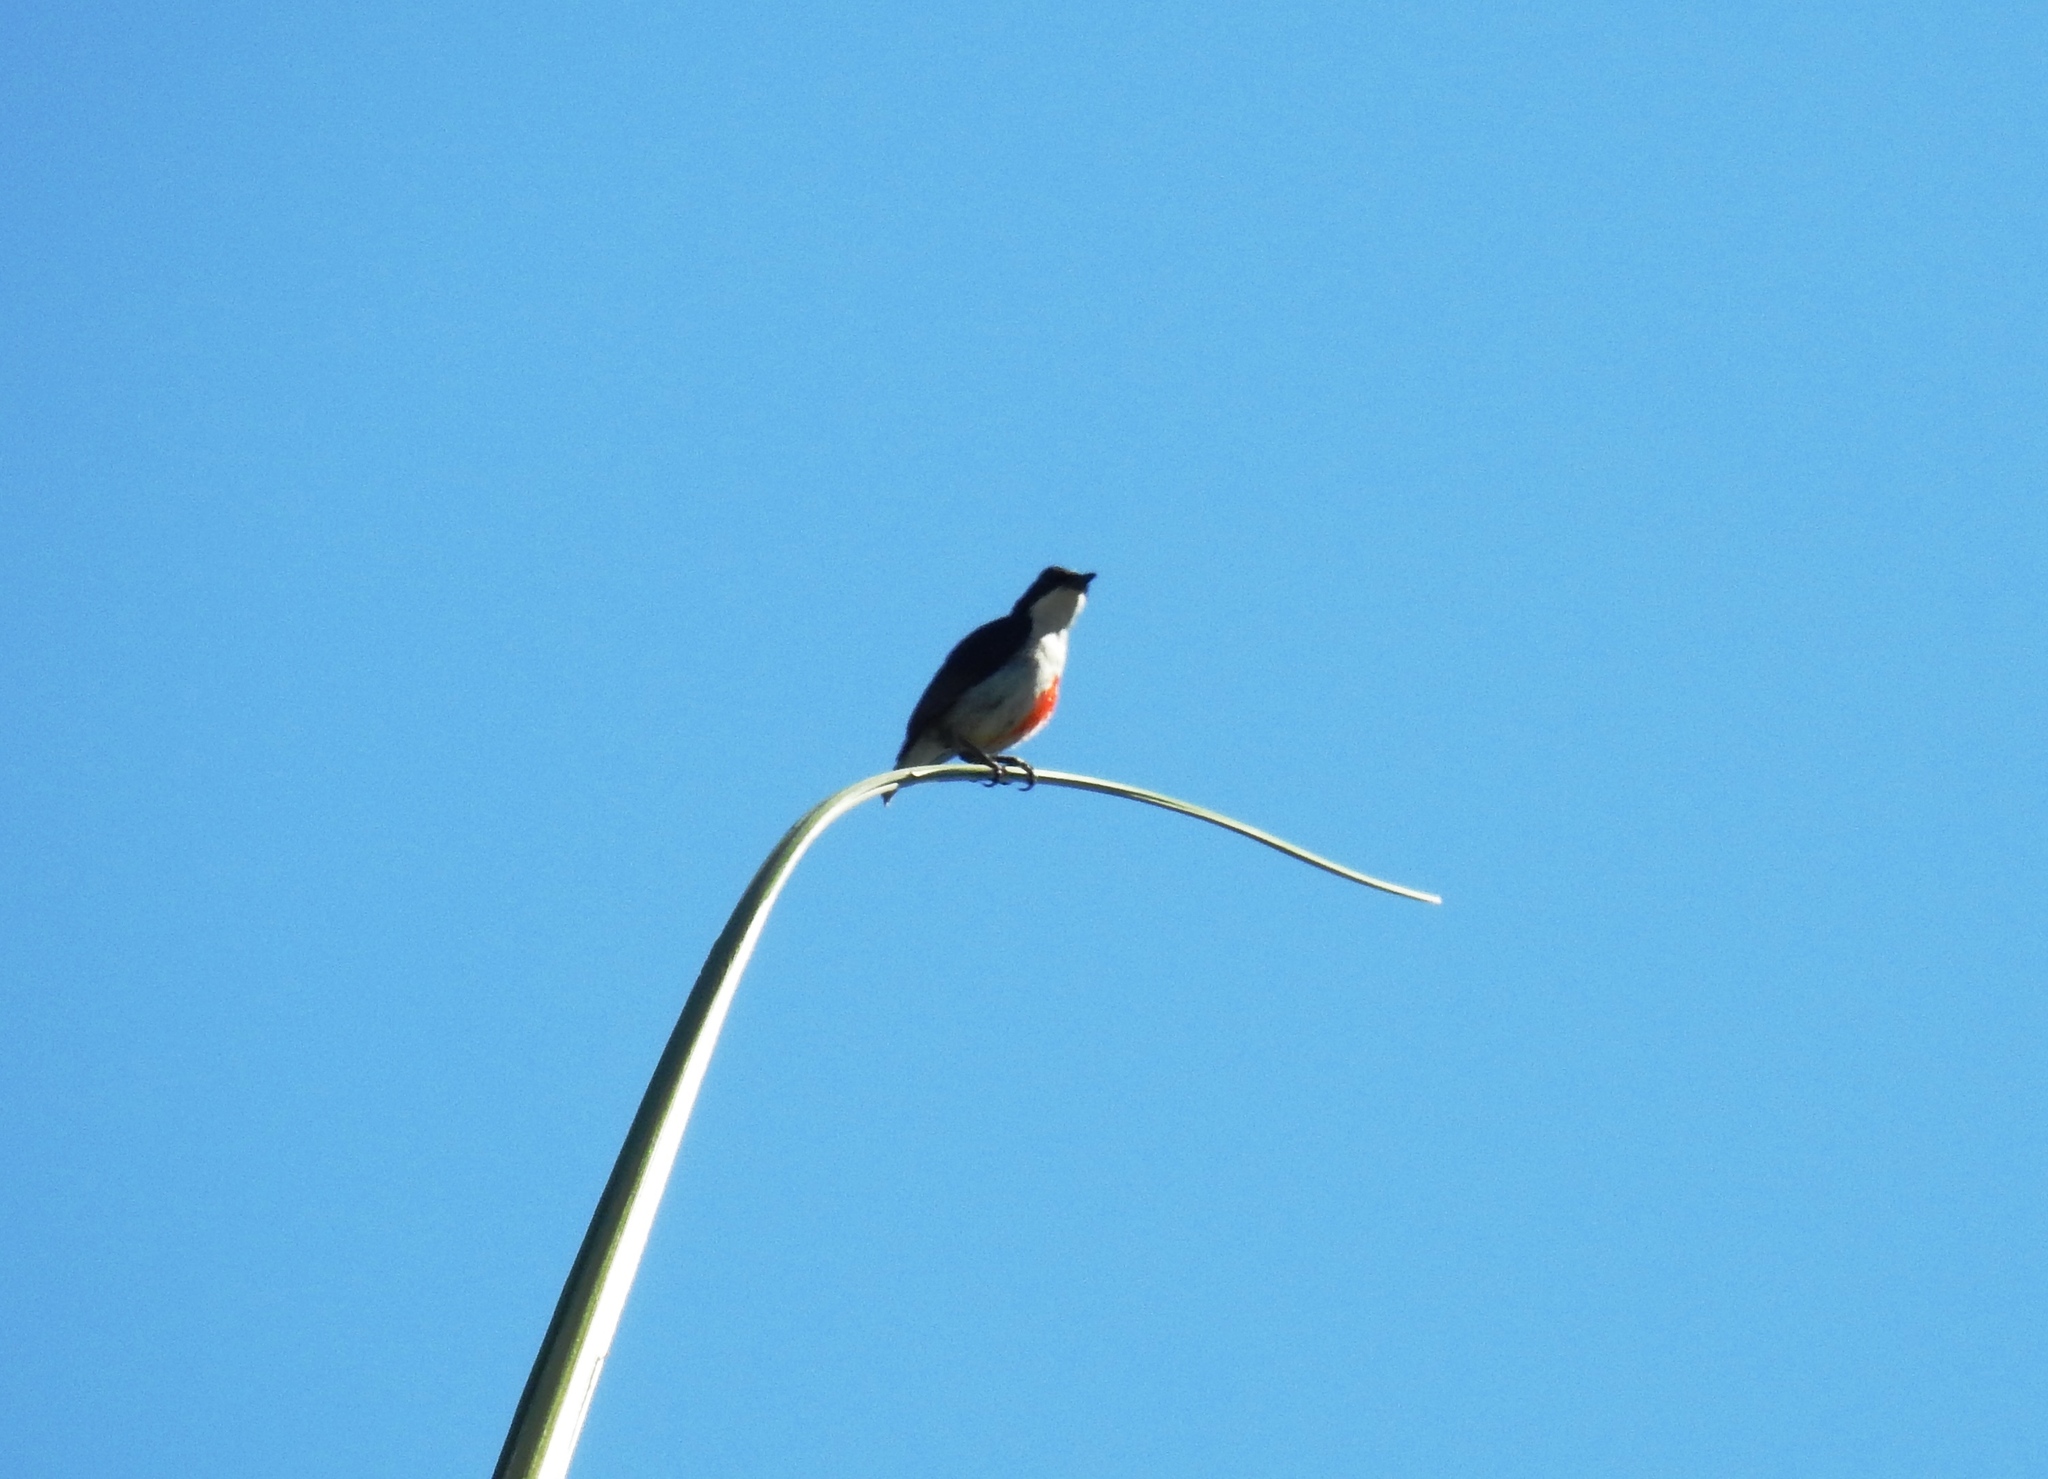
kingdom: Animalia
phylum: Chordata
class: Aves
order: Passeriformes
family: Dicaeidae
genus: Dicaeum
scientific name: Dicaeum australe
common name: Red-keeled flowerpecker
